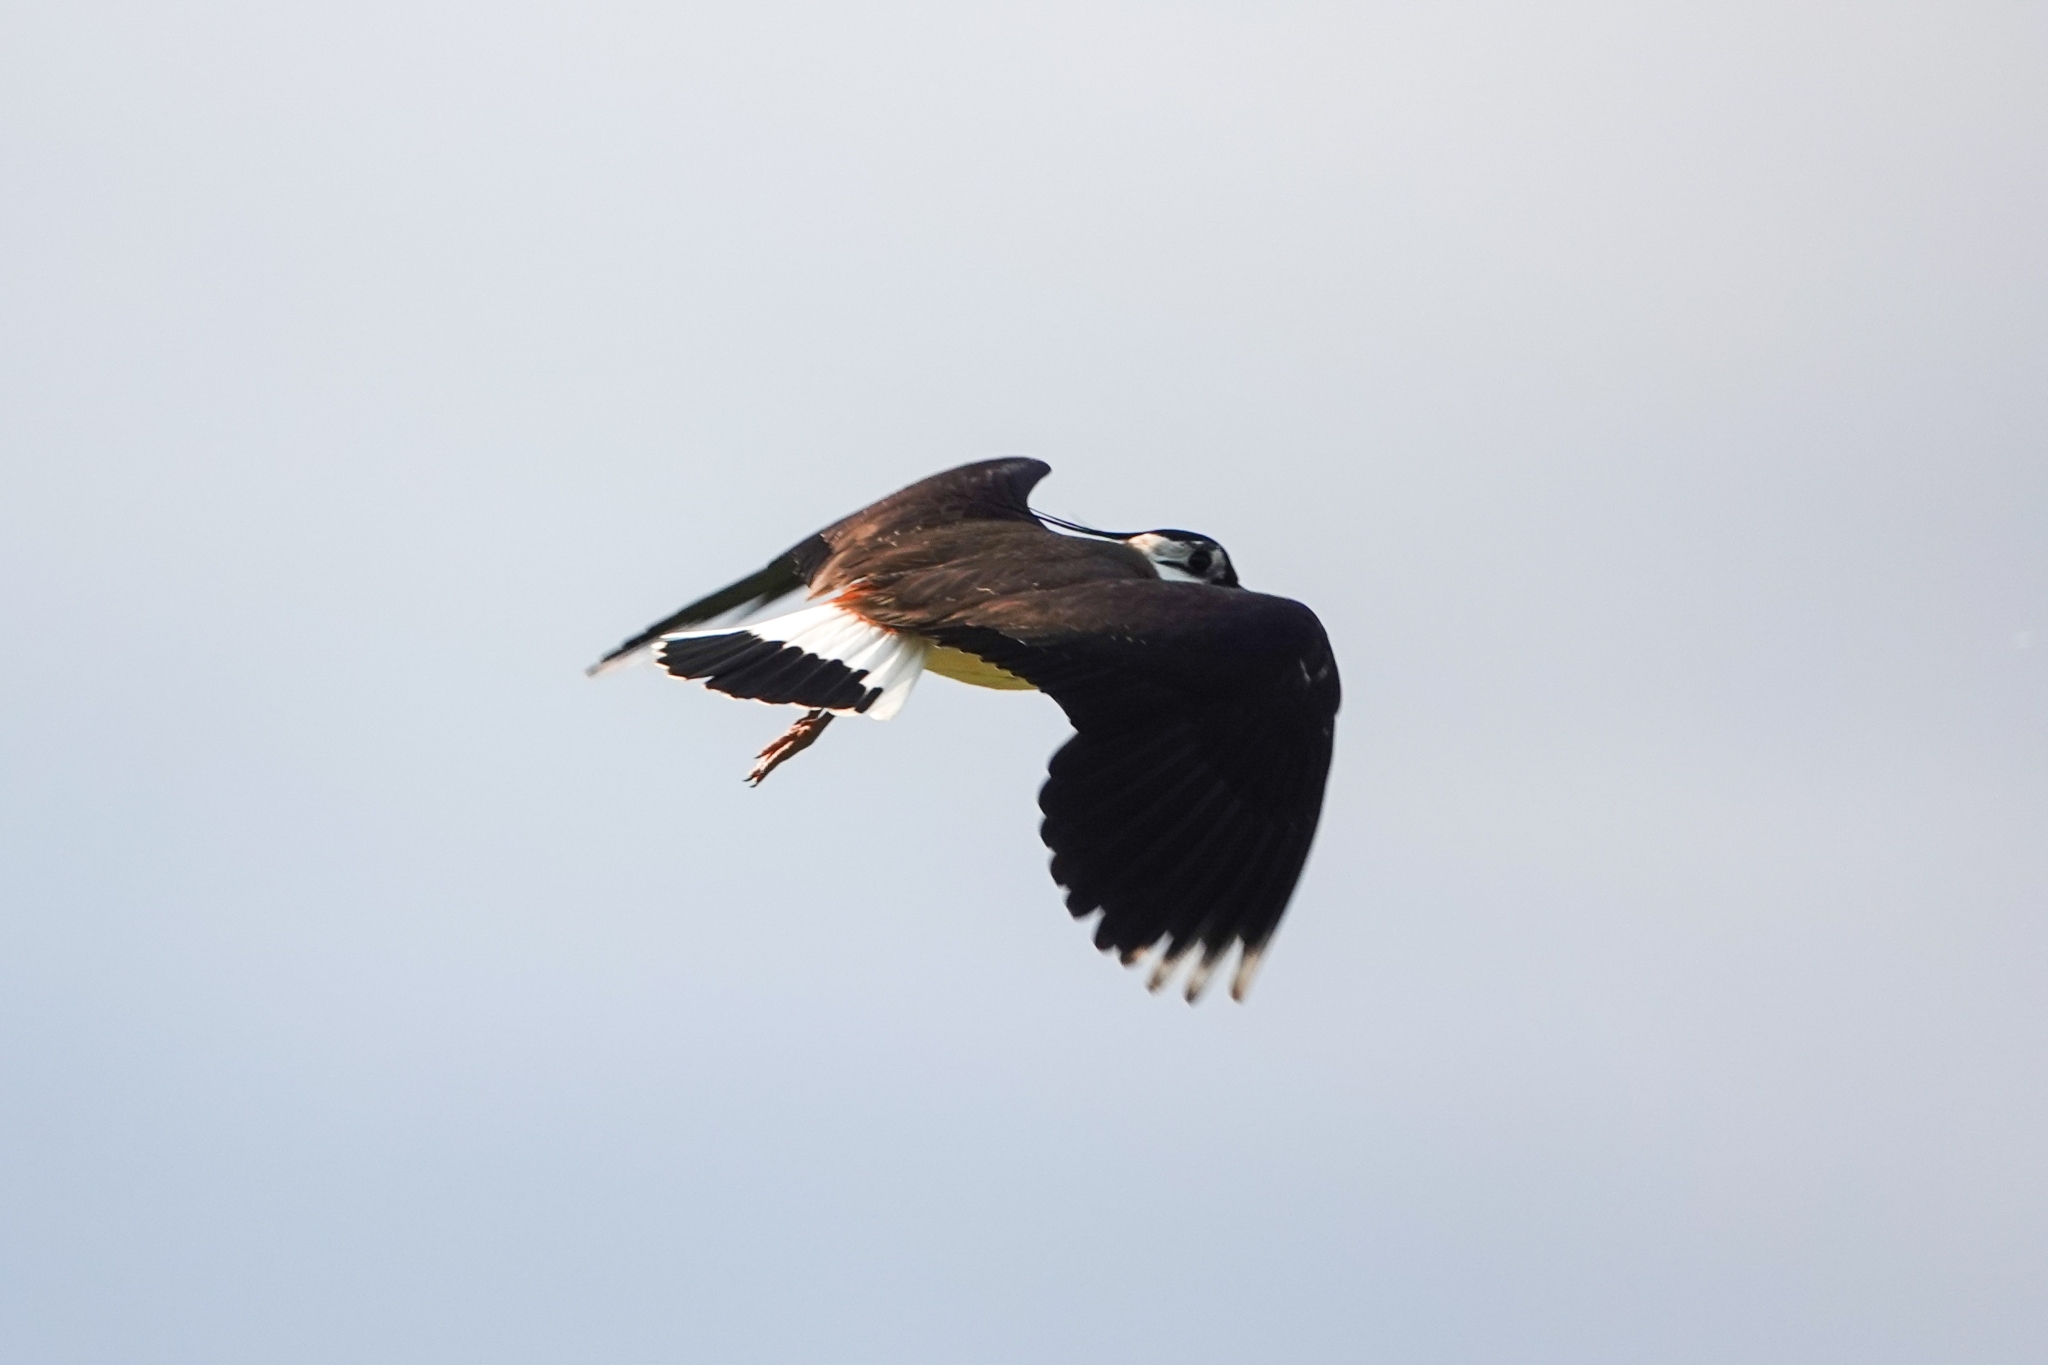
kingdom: Animalia
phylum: Chordata
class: Aves
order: Charadriiformes
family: Charadriidae
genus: Vanellus
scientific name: Vanellus vanellus
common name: Northern lapwing
